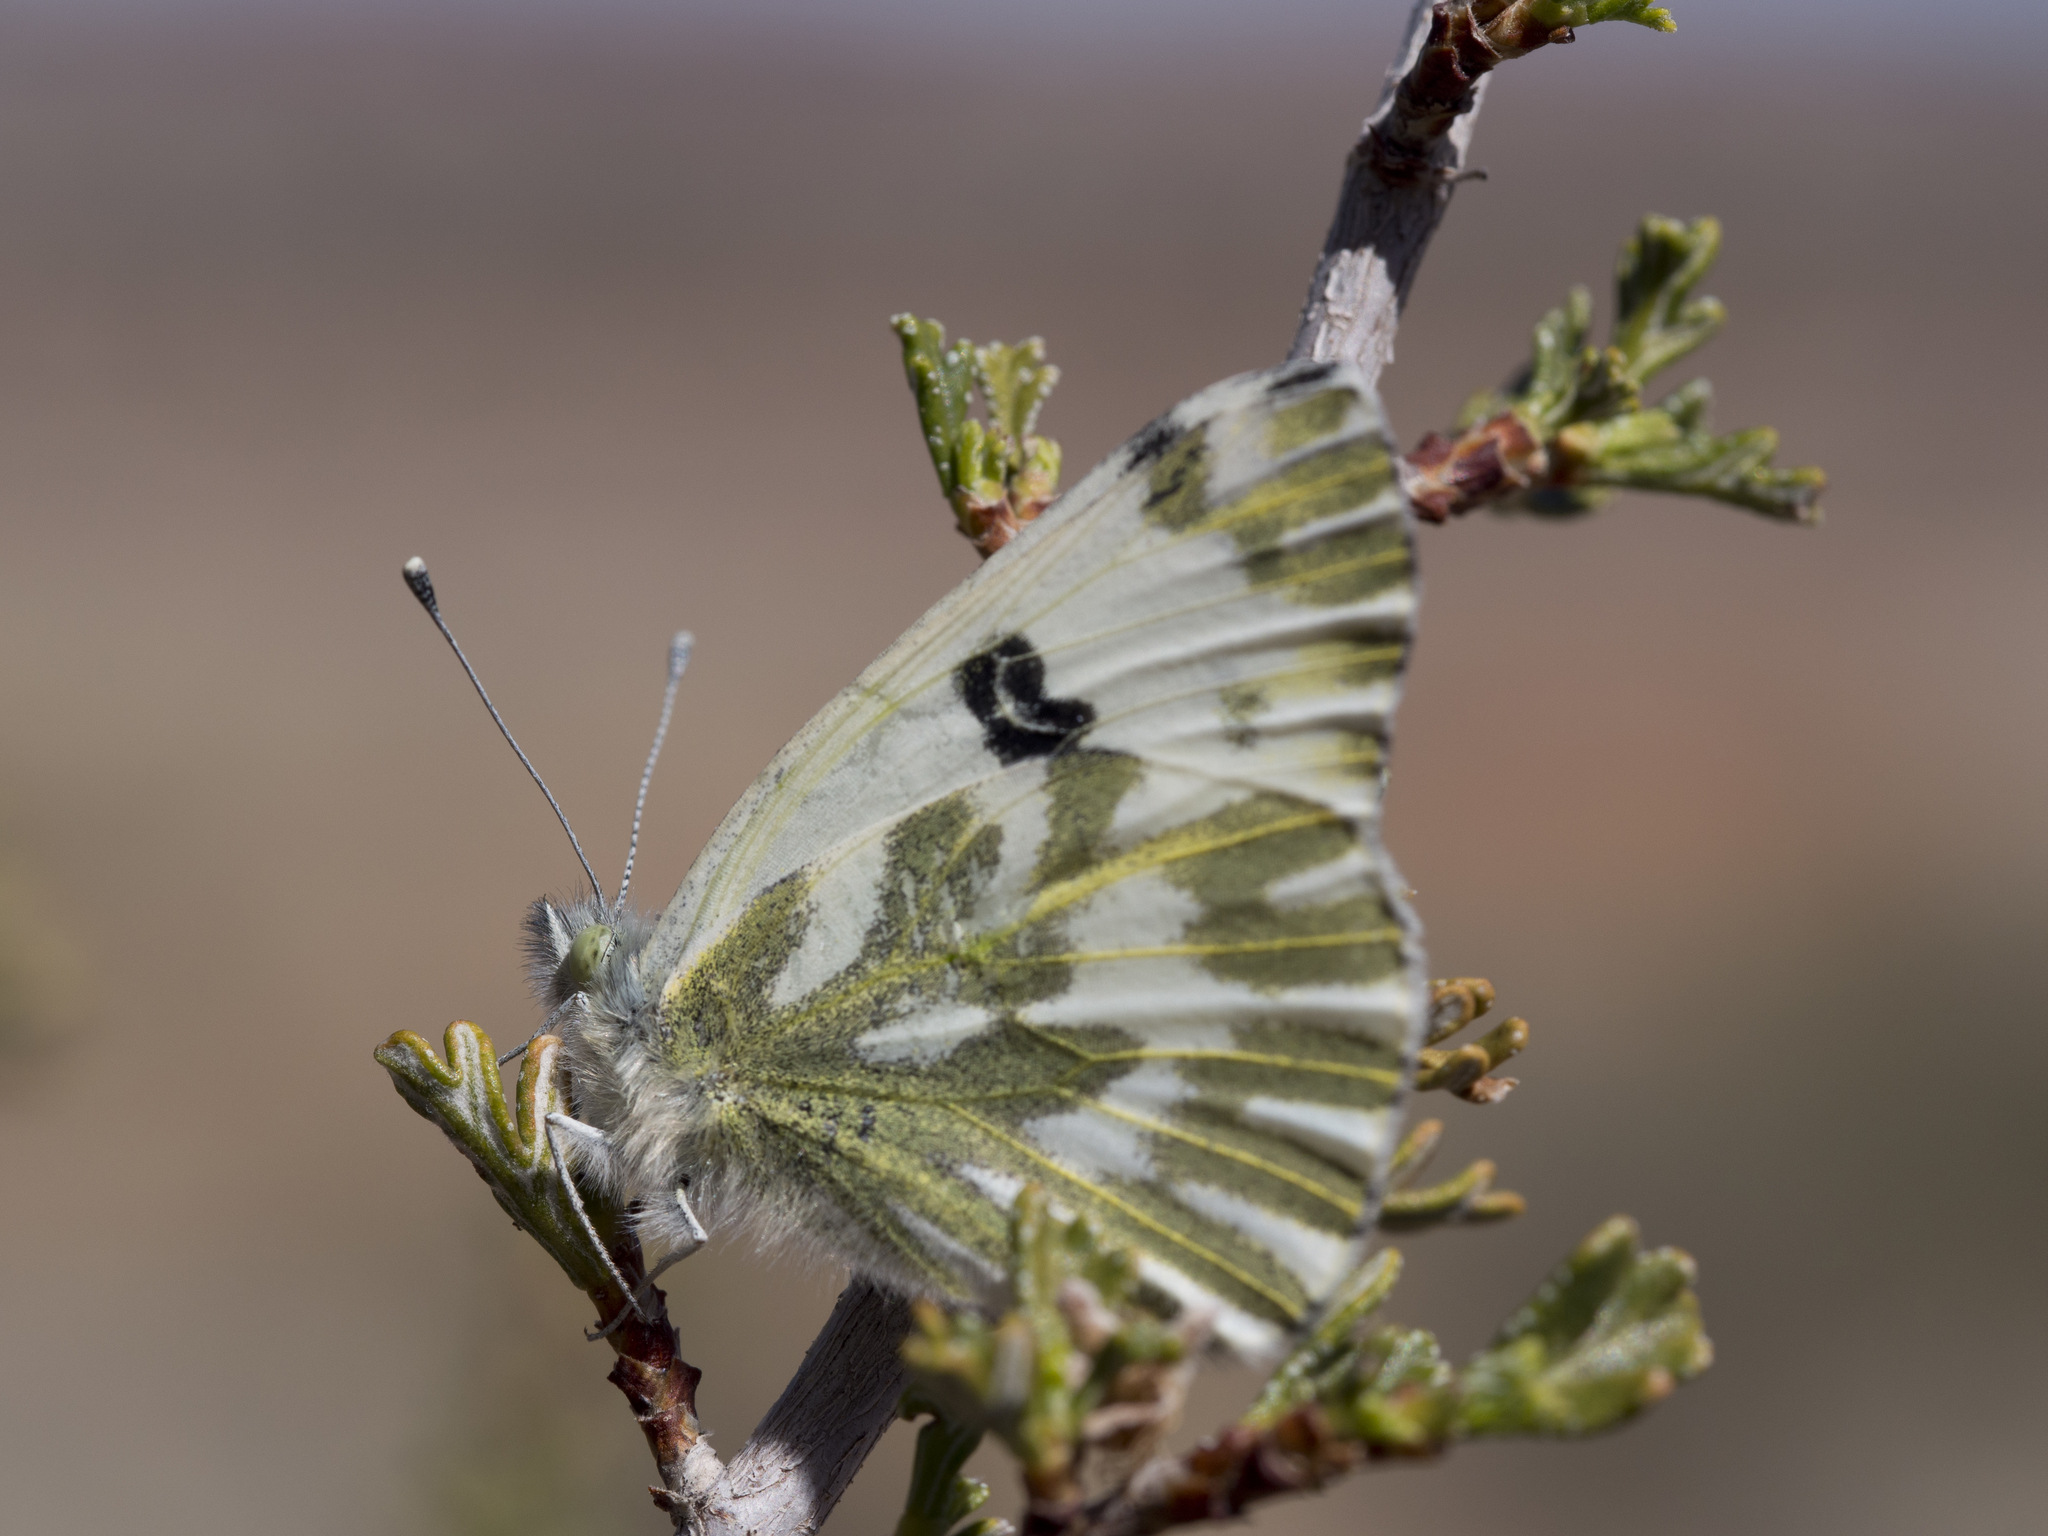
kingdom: Animalia
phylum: Arthropoda
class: Insecta
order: Lepidoptera
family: Pieridae
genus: Pontia
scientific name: Pontia beckerii
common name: Becker's white
